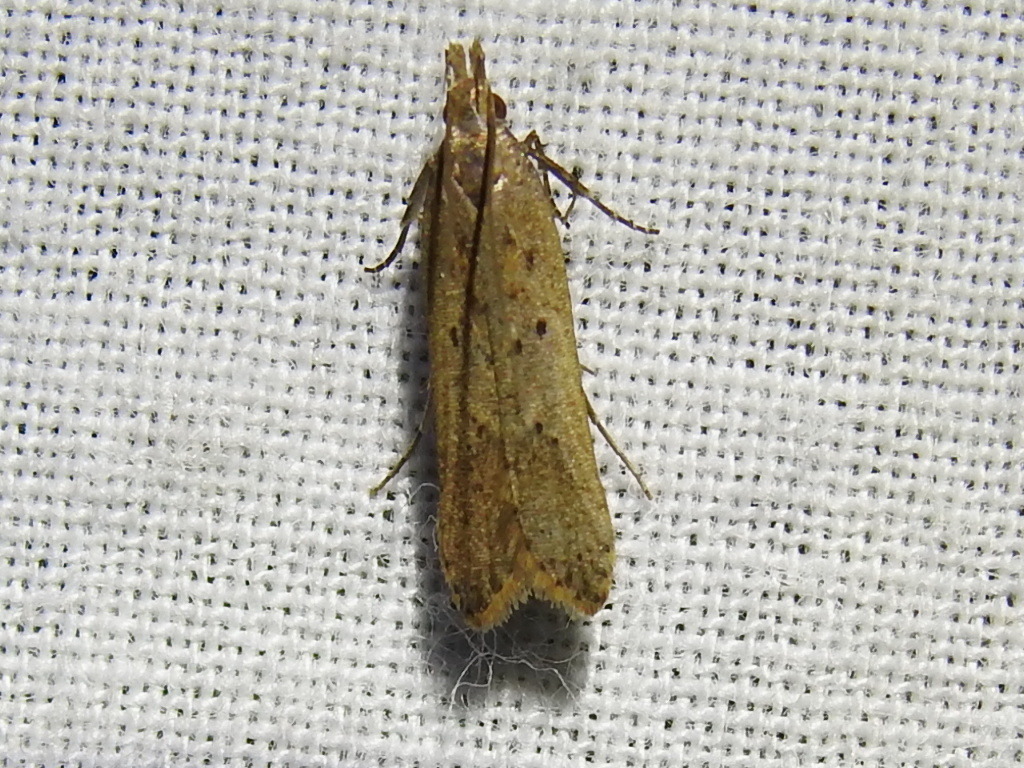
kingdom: Animalia
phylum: Arthropoda
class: Insecta
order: Lepidoptera
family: Gelechiidae
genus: Dichomeris
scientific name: Dichomeris ligulella
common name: Moth
